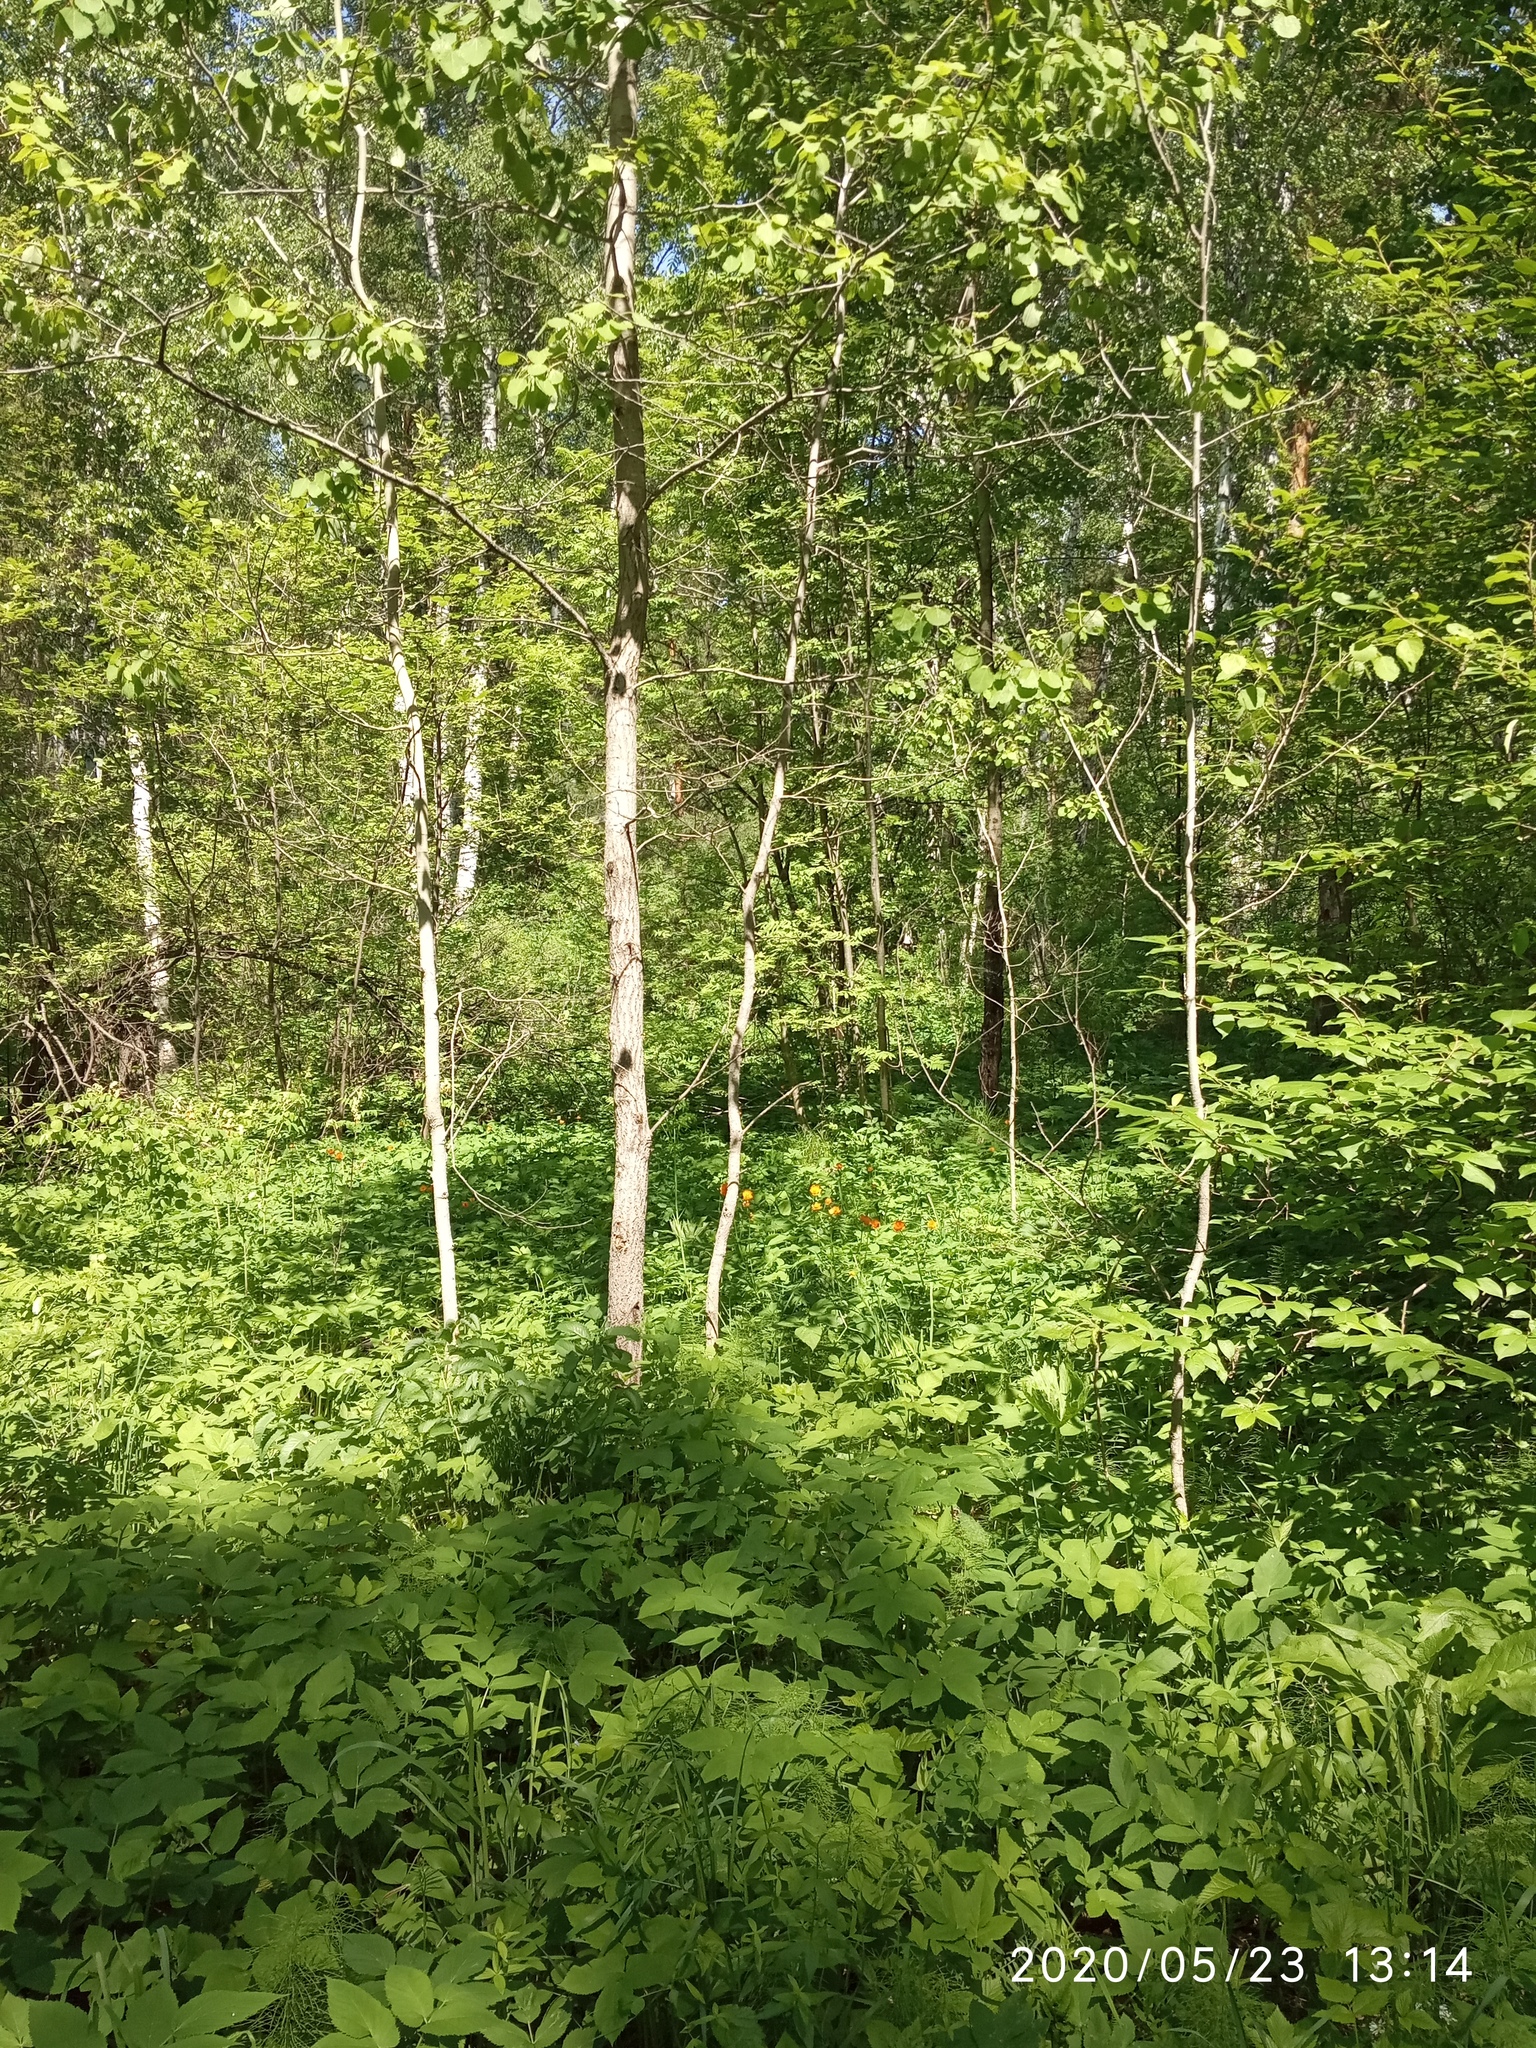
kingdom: Plantae
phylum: Tracheophyta
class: Magnoliopsida
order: Malpighiales
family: Salicaceae
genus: Populus
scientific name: Populus tremula
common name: European aspen
